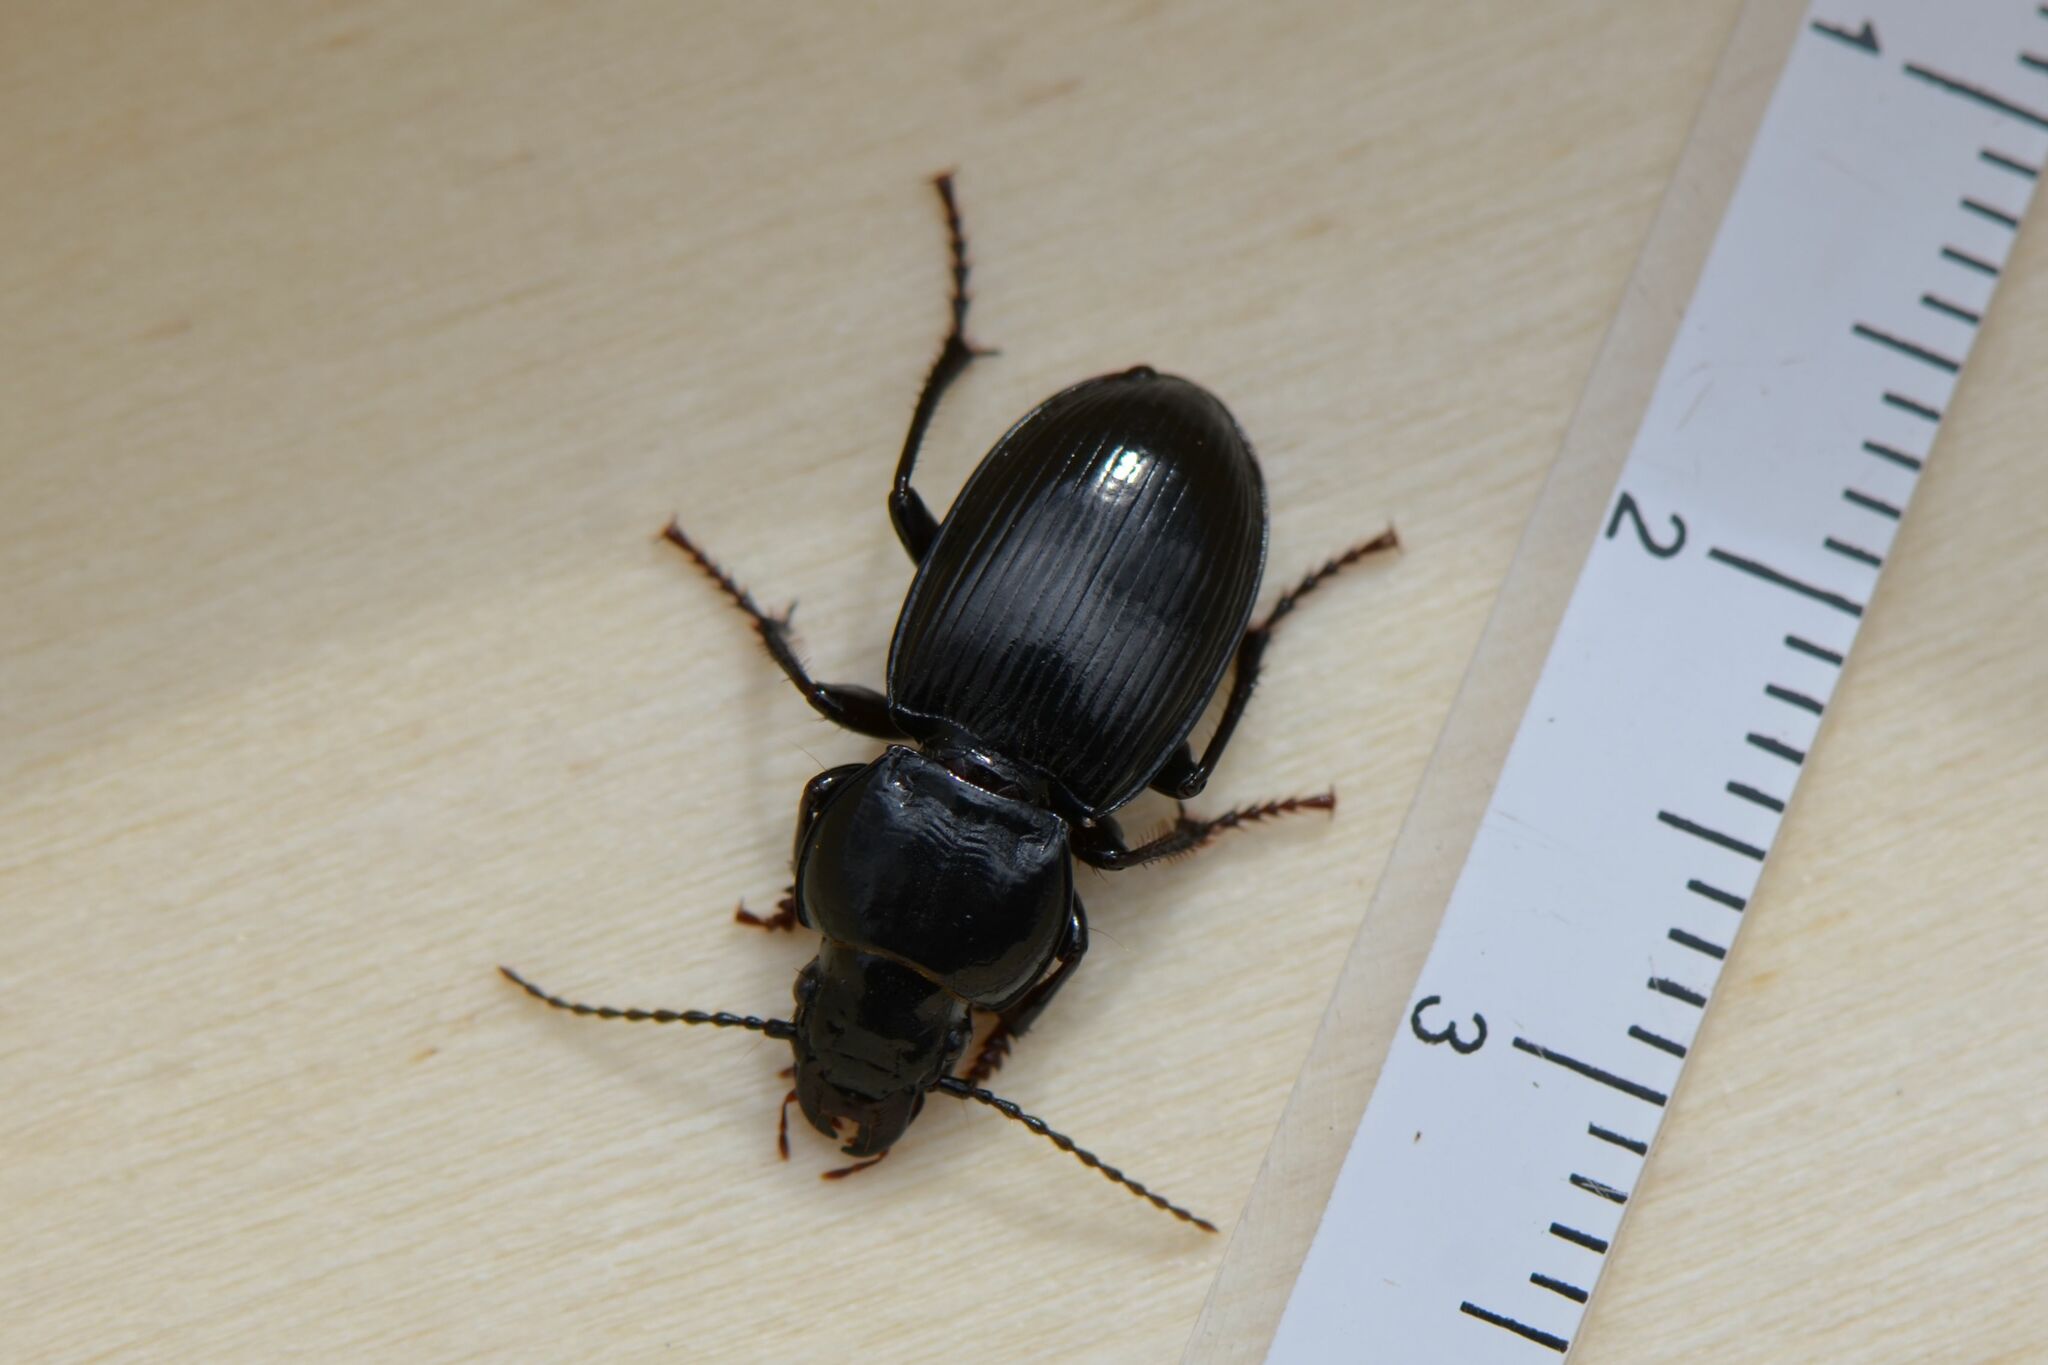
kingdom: Animalia
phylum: Arthropoda
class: Insecta
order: Coleoptera
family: Carabidae
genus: Molops
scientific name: Molops elatus
